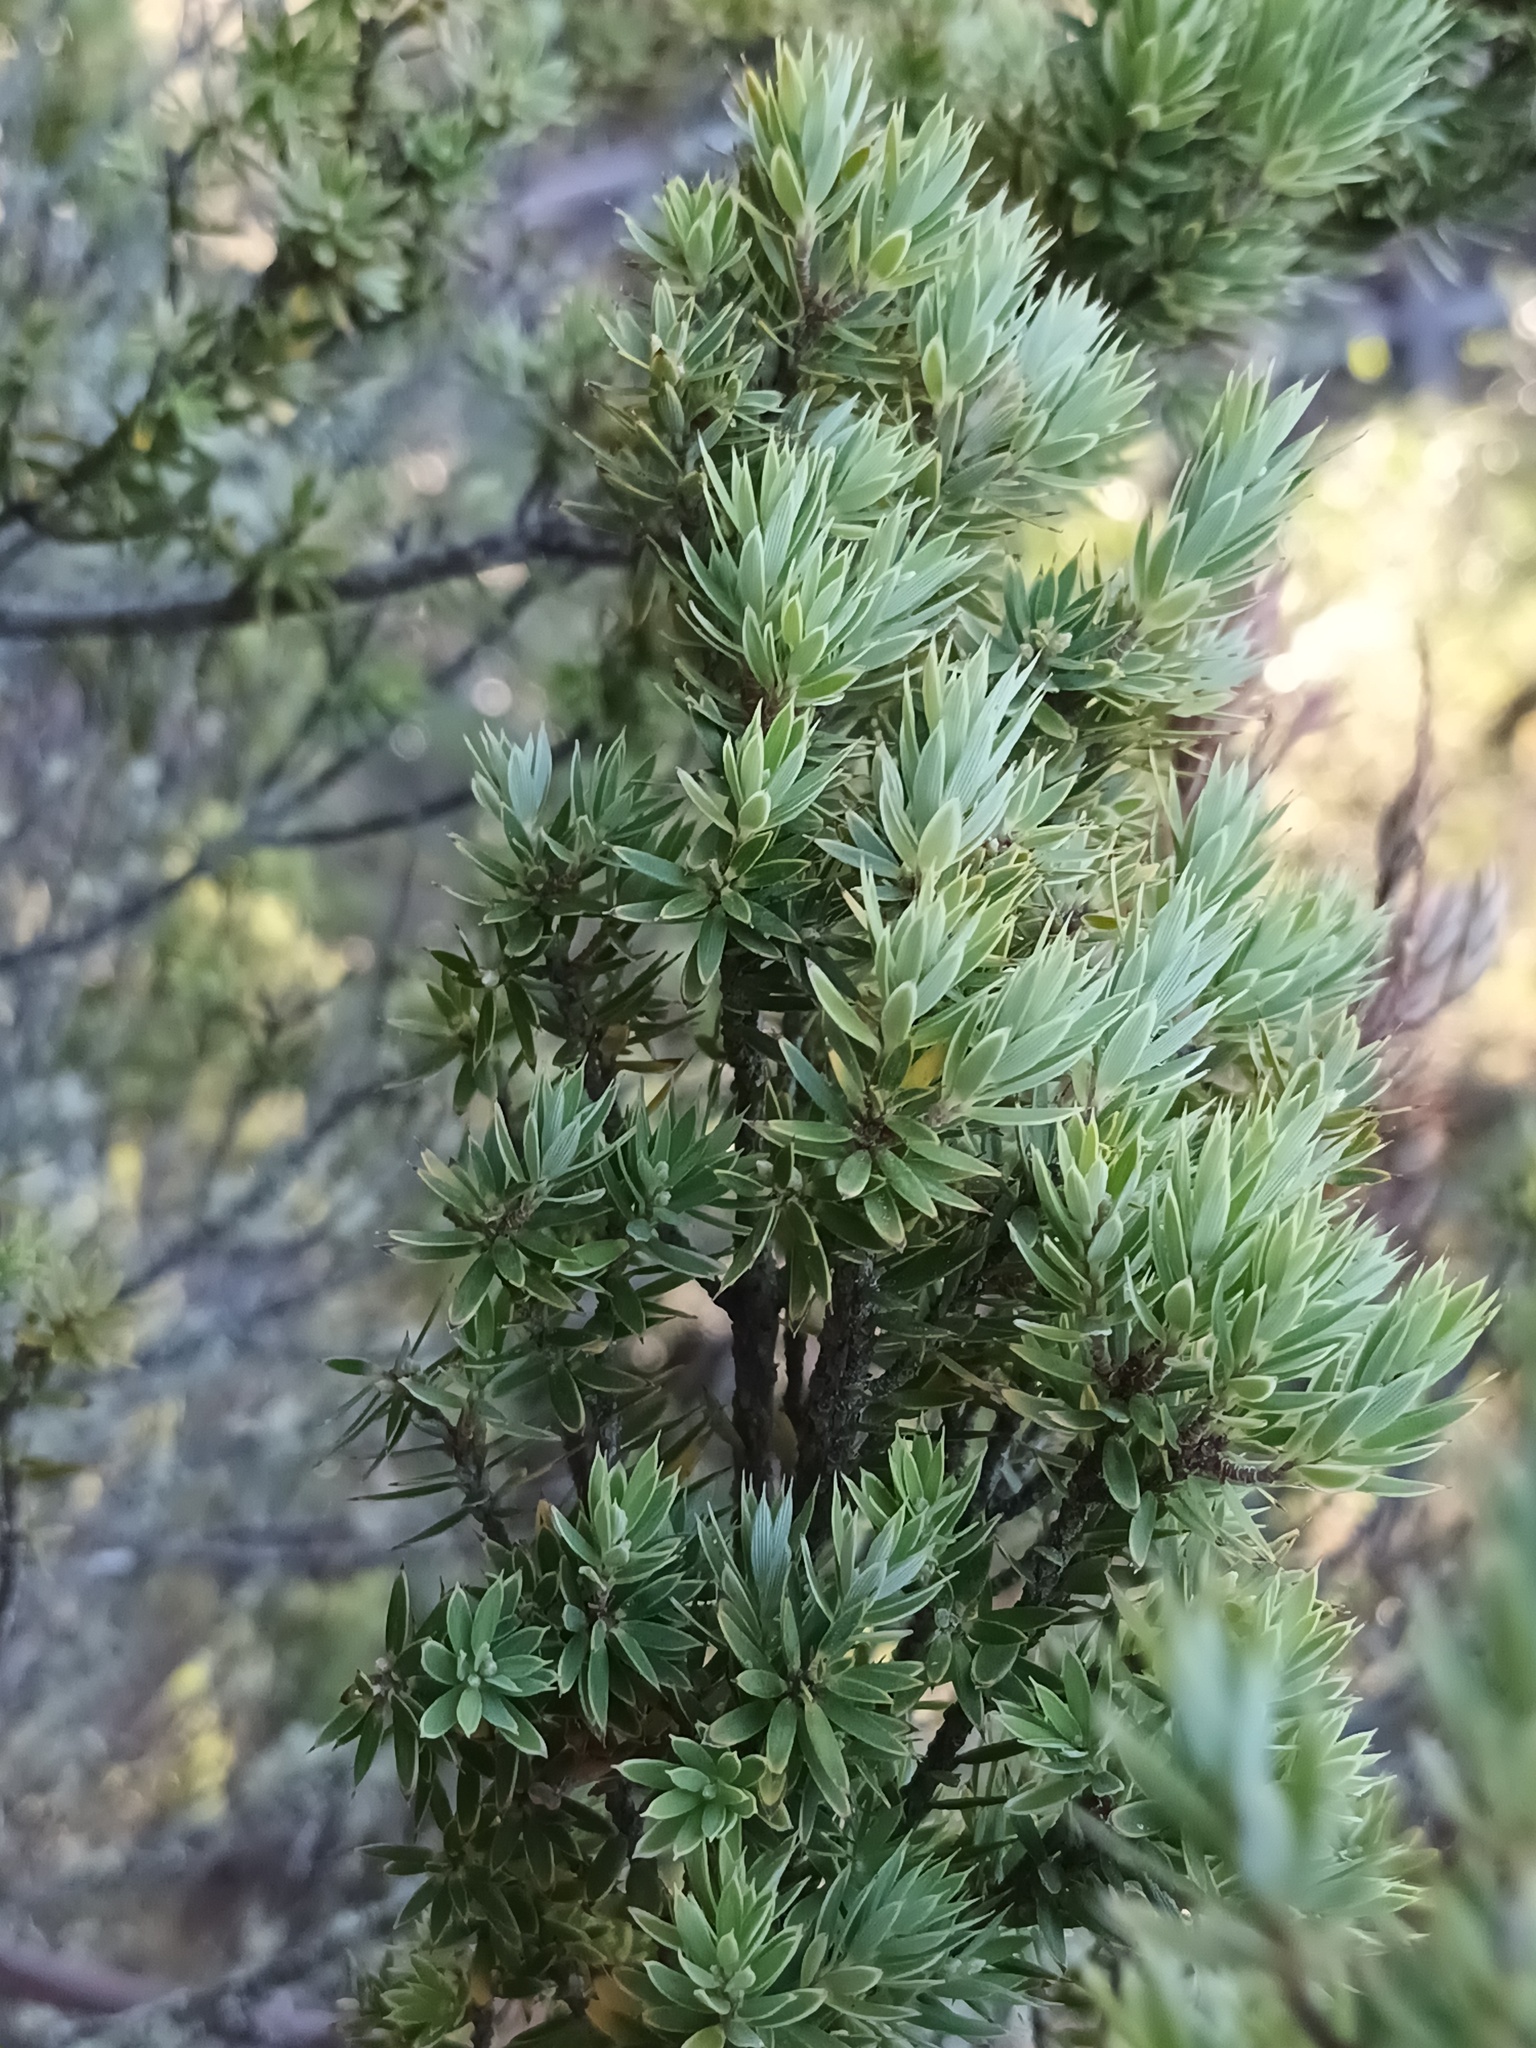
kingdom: Plantae
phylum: Tracheophyta
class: Magnoliopsida
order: Ericales
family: Ericaceae
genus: Leptecophylla
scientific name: Leptecophylla tameiameiae
